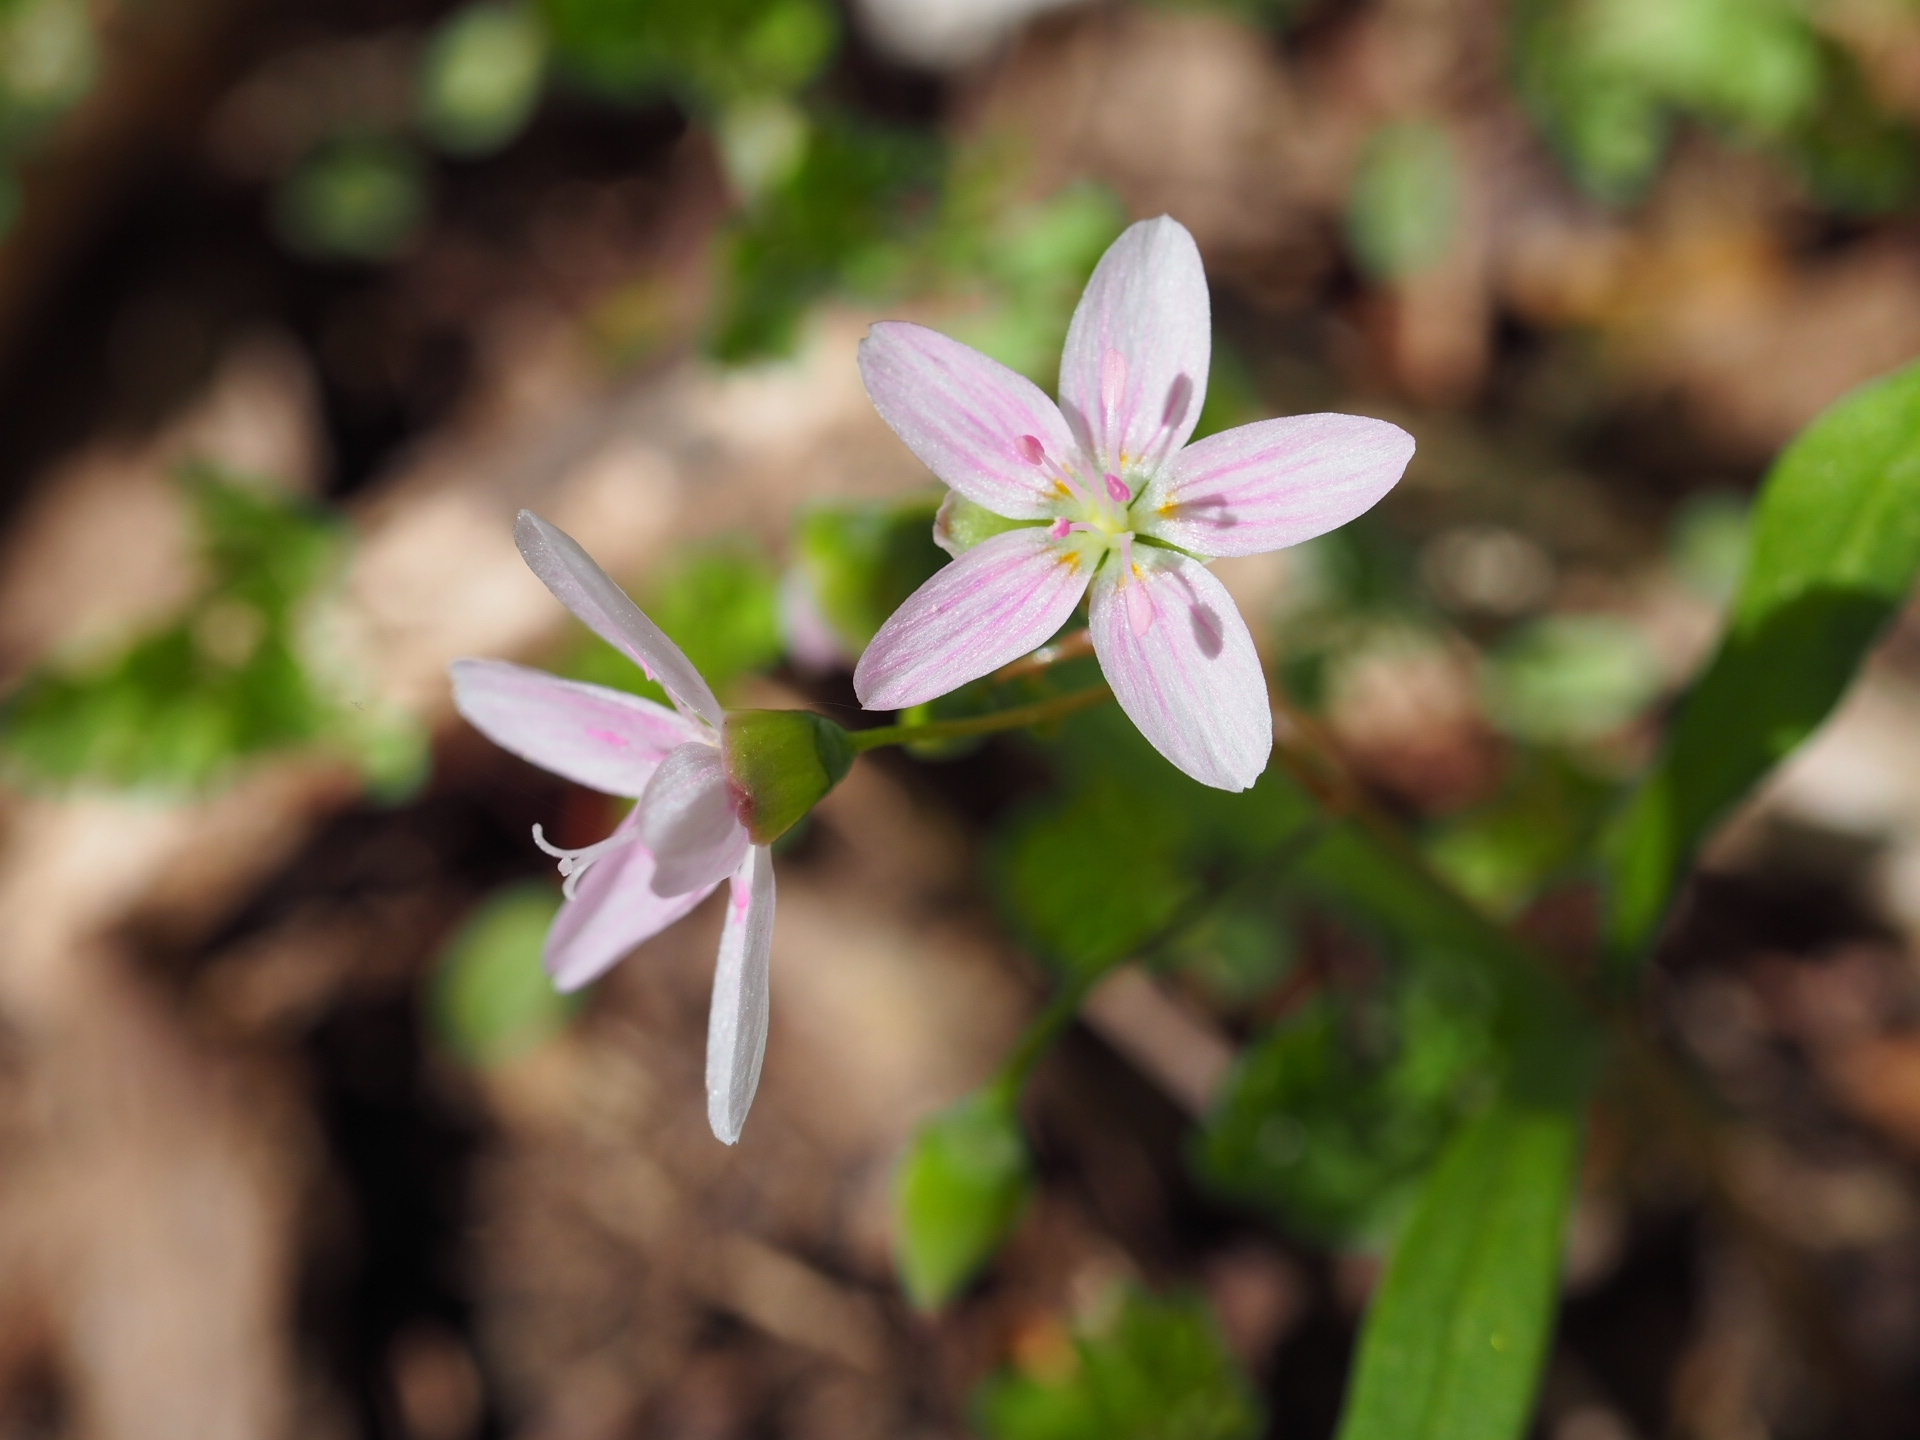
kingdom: Plantae
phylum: Tracheophyta
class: Magnoliopsida
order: Caryophyllales
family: Montiaceae
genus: Claytonia
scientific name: Claytonia virginica
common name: Virginia springbeauty
